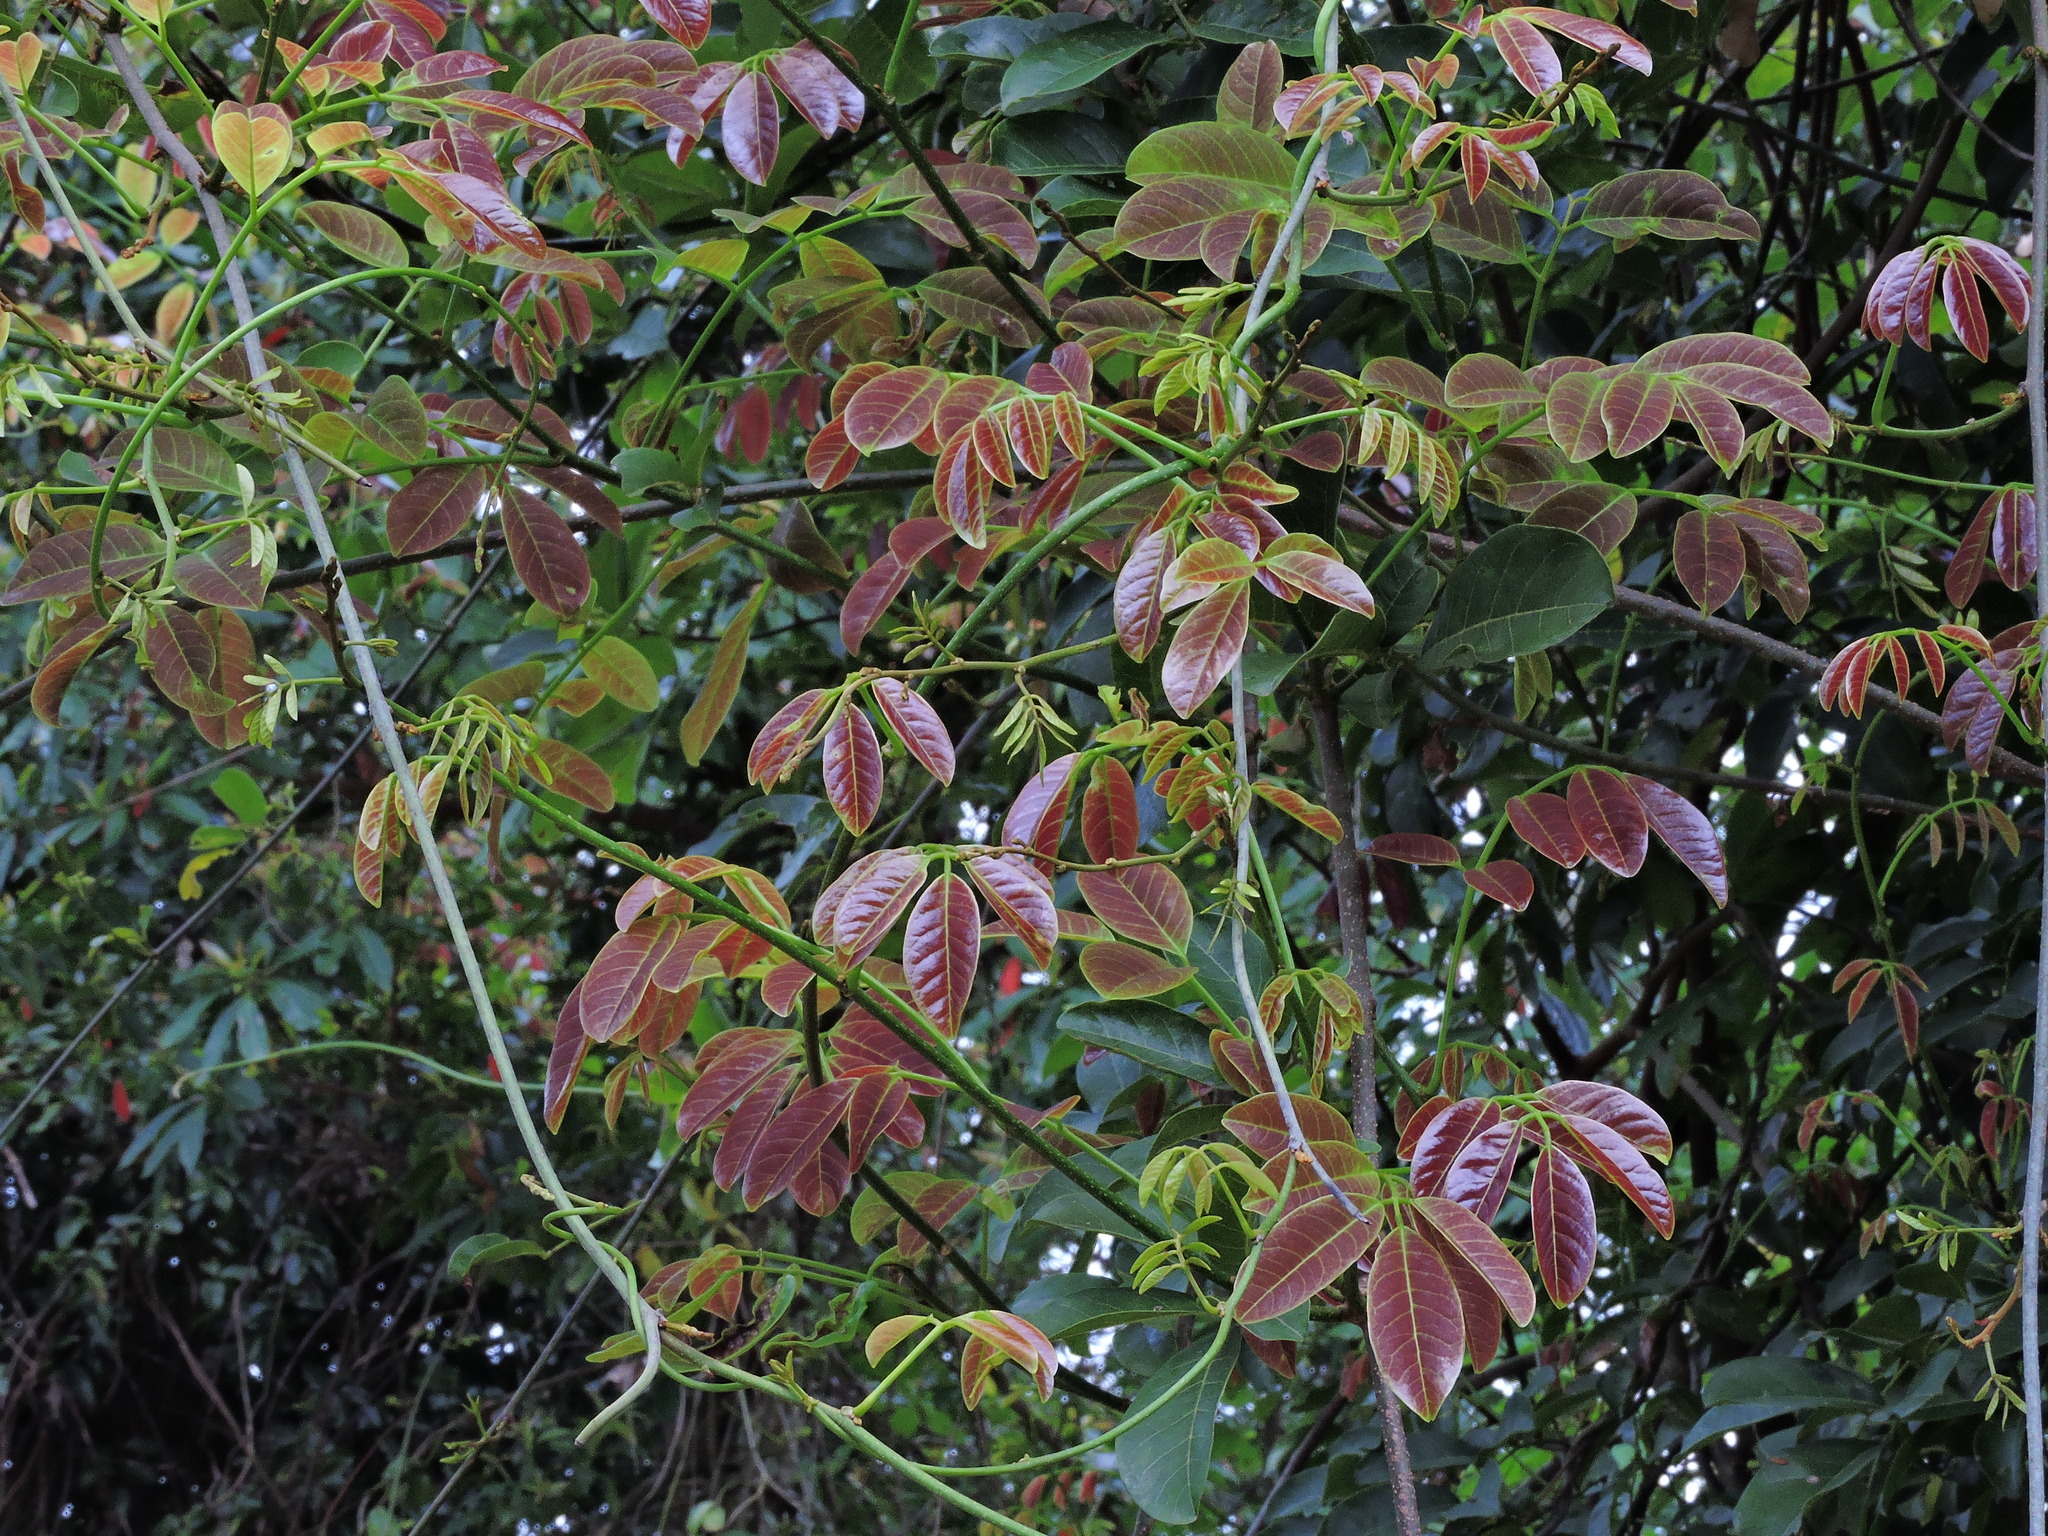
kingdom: Plantae
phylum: Tracheophyta
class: Magnoliopsida
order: Fabales
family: Fabaceae
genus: Derris
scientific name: Derris laxiflora
